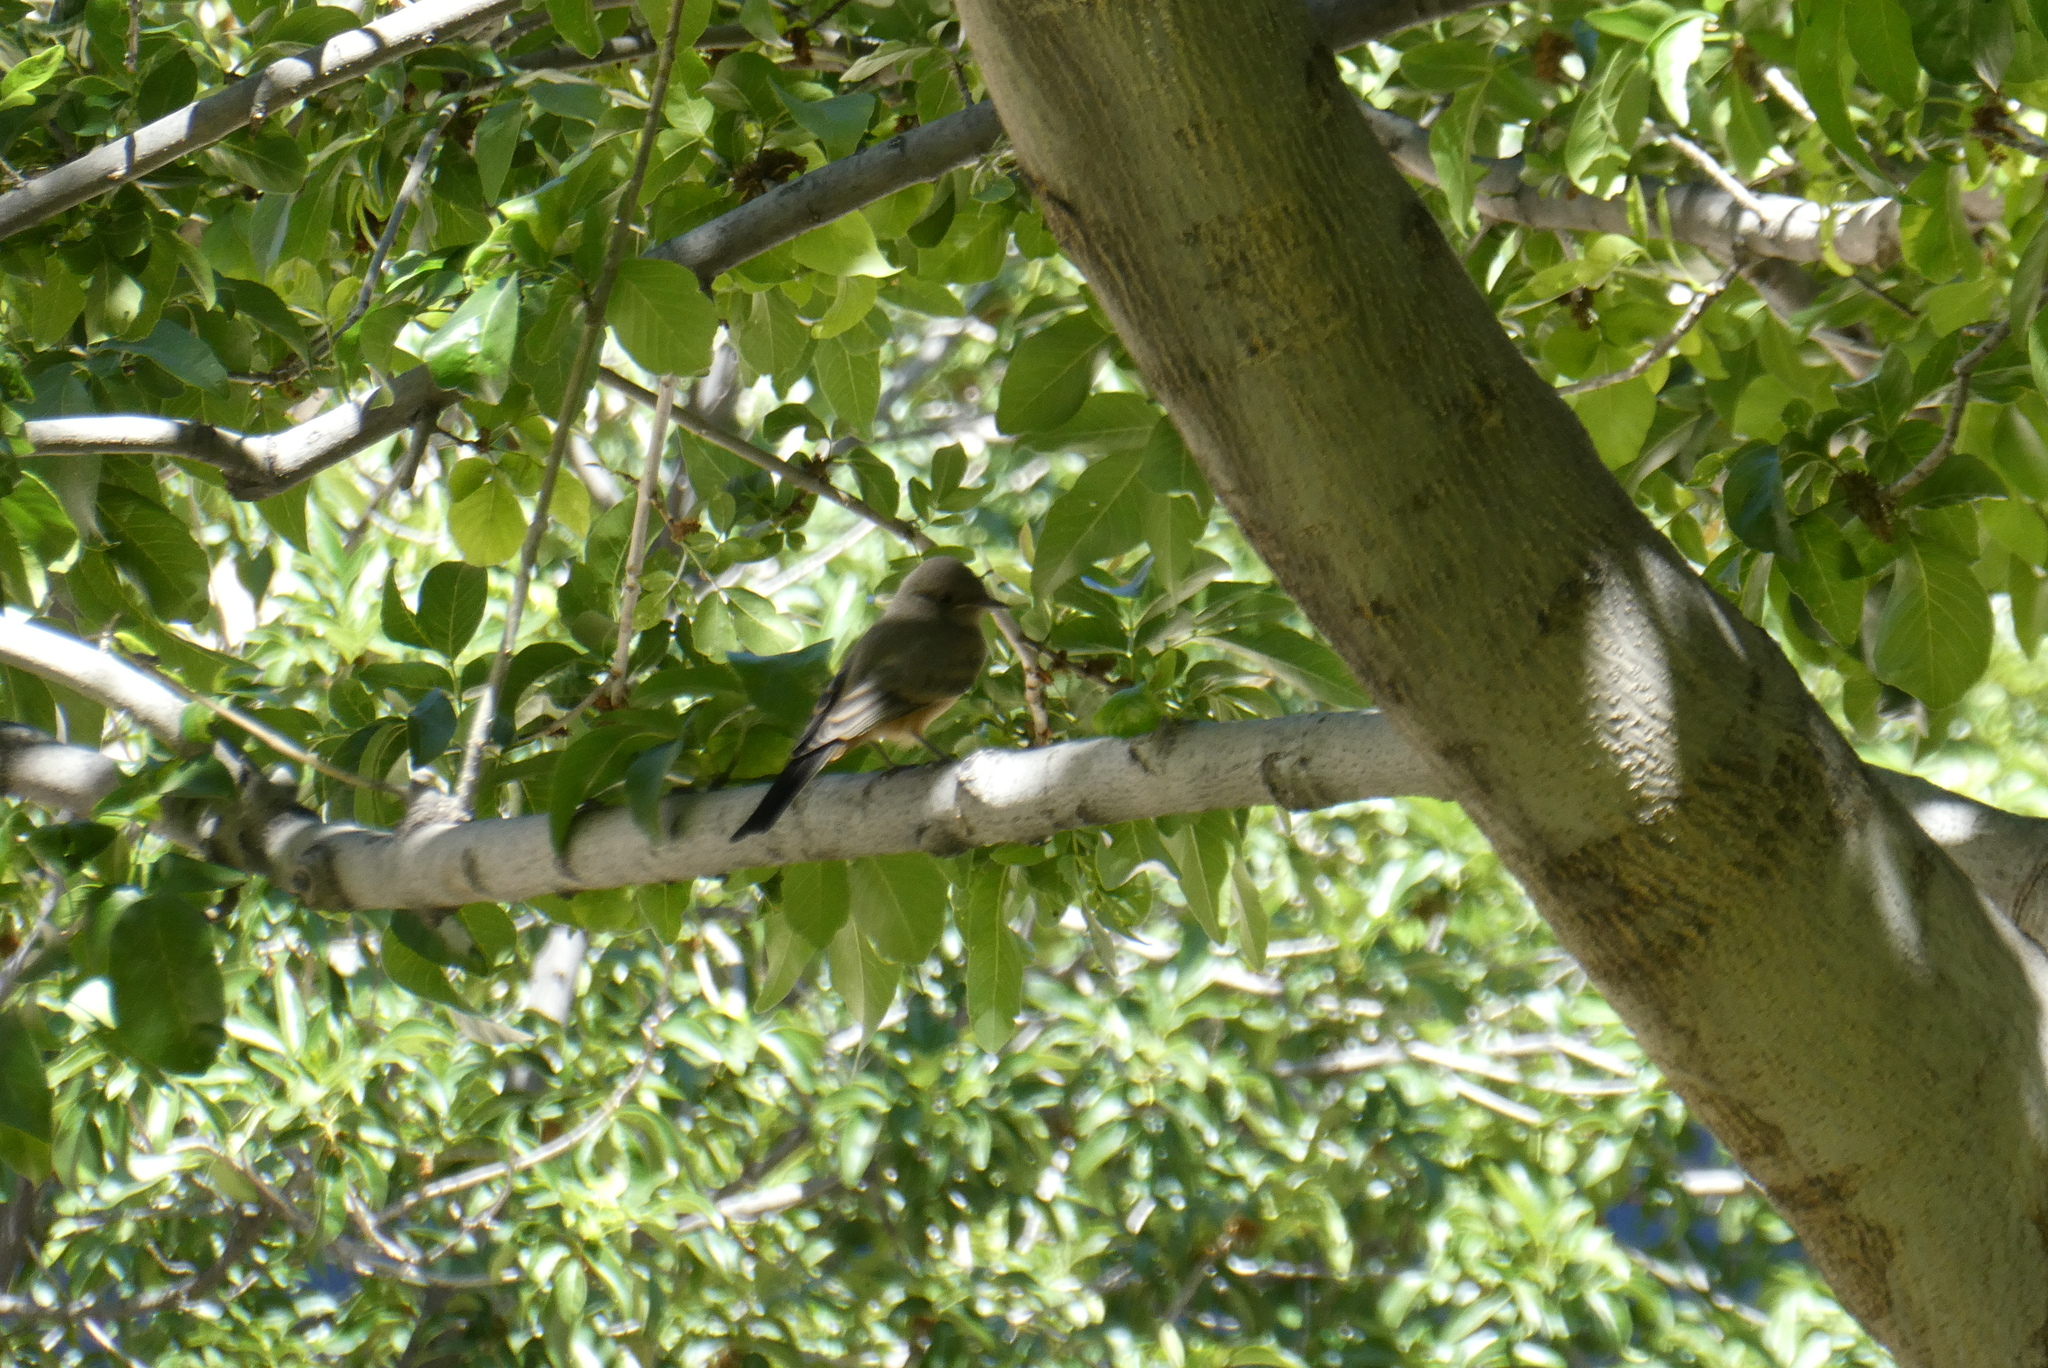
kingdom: Animalia
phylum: Chordata
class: Aves
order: Passeriformes
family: Tyrannidae
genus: Sayornis
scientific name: Sayornis saya
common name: Say's phoebe
